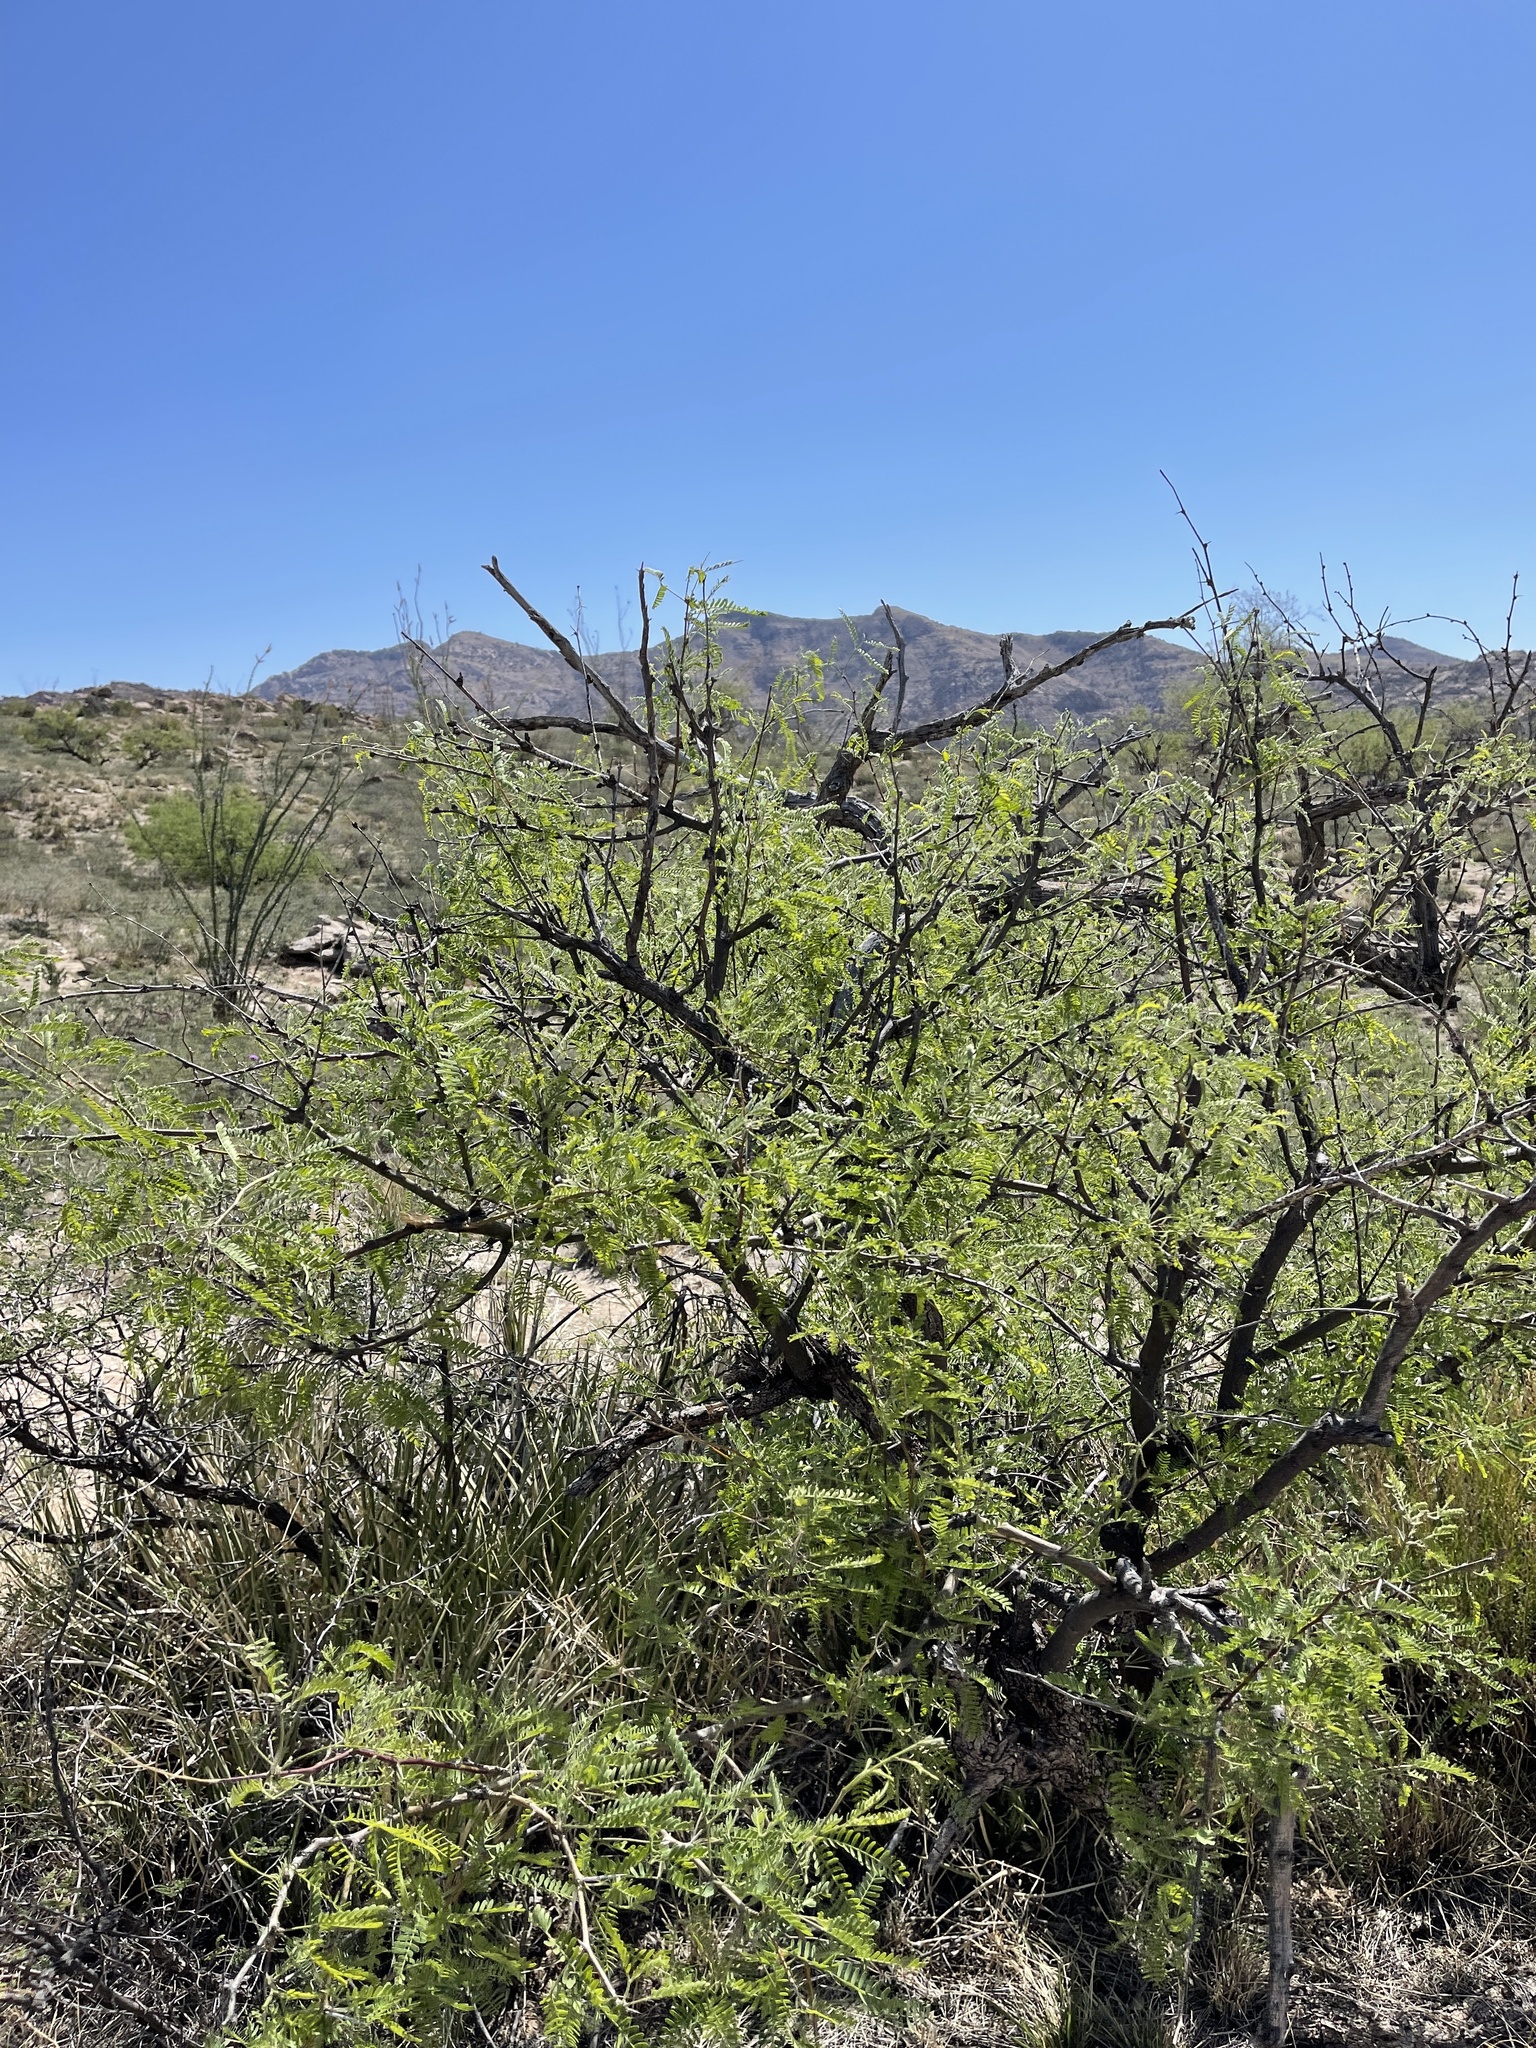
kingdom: Plantae
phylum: Tracheophyta
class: Magnoliopsida
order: Fabales
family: Fabaceae
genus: Prosopis
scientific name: Prosopis velutina
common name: Velvet mesquite
